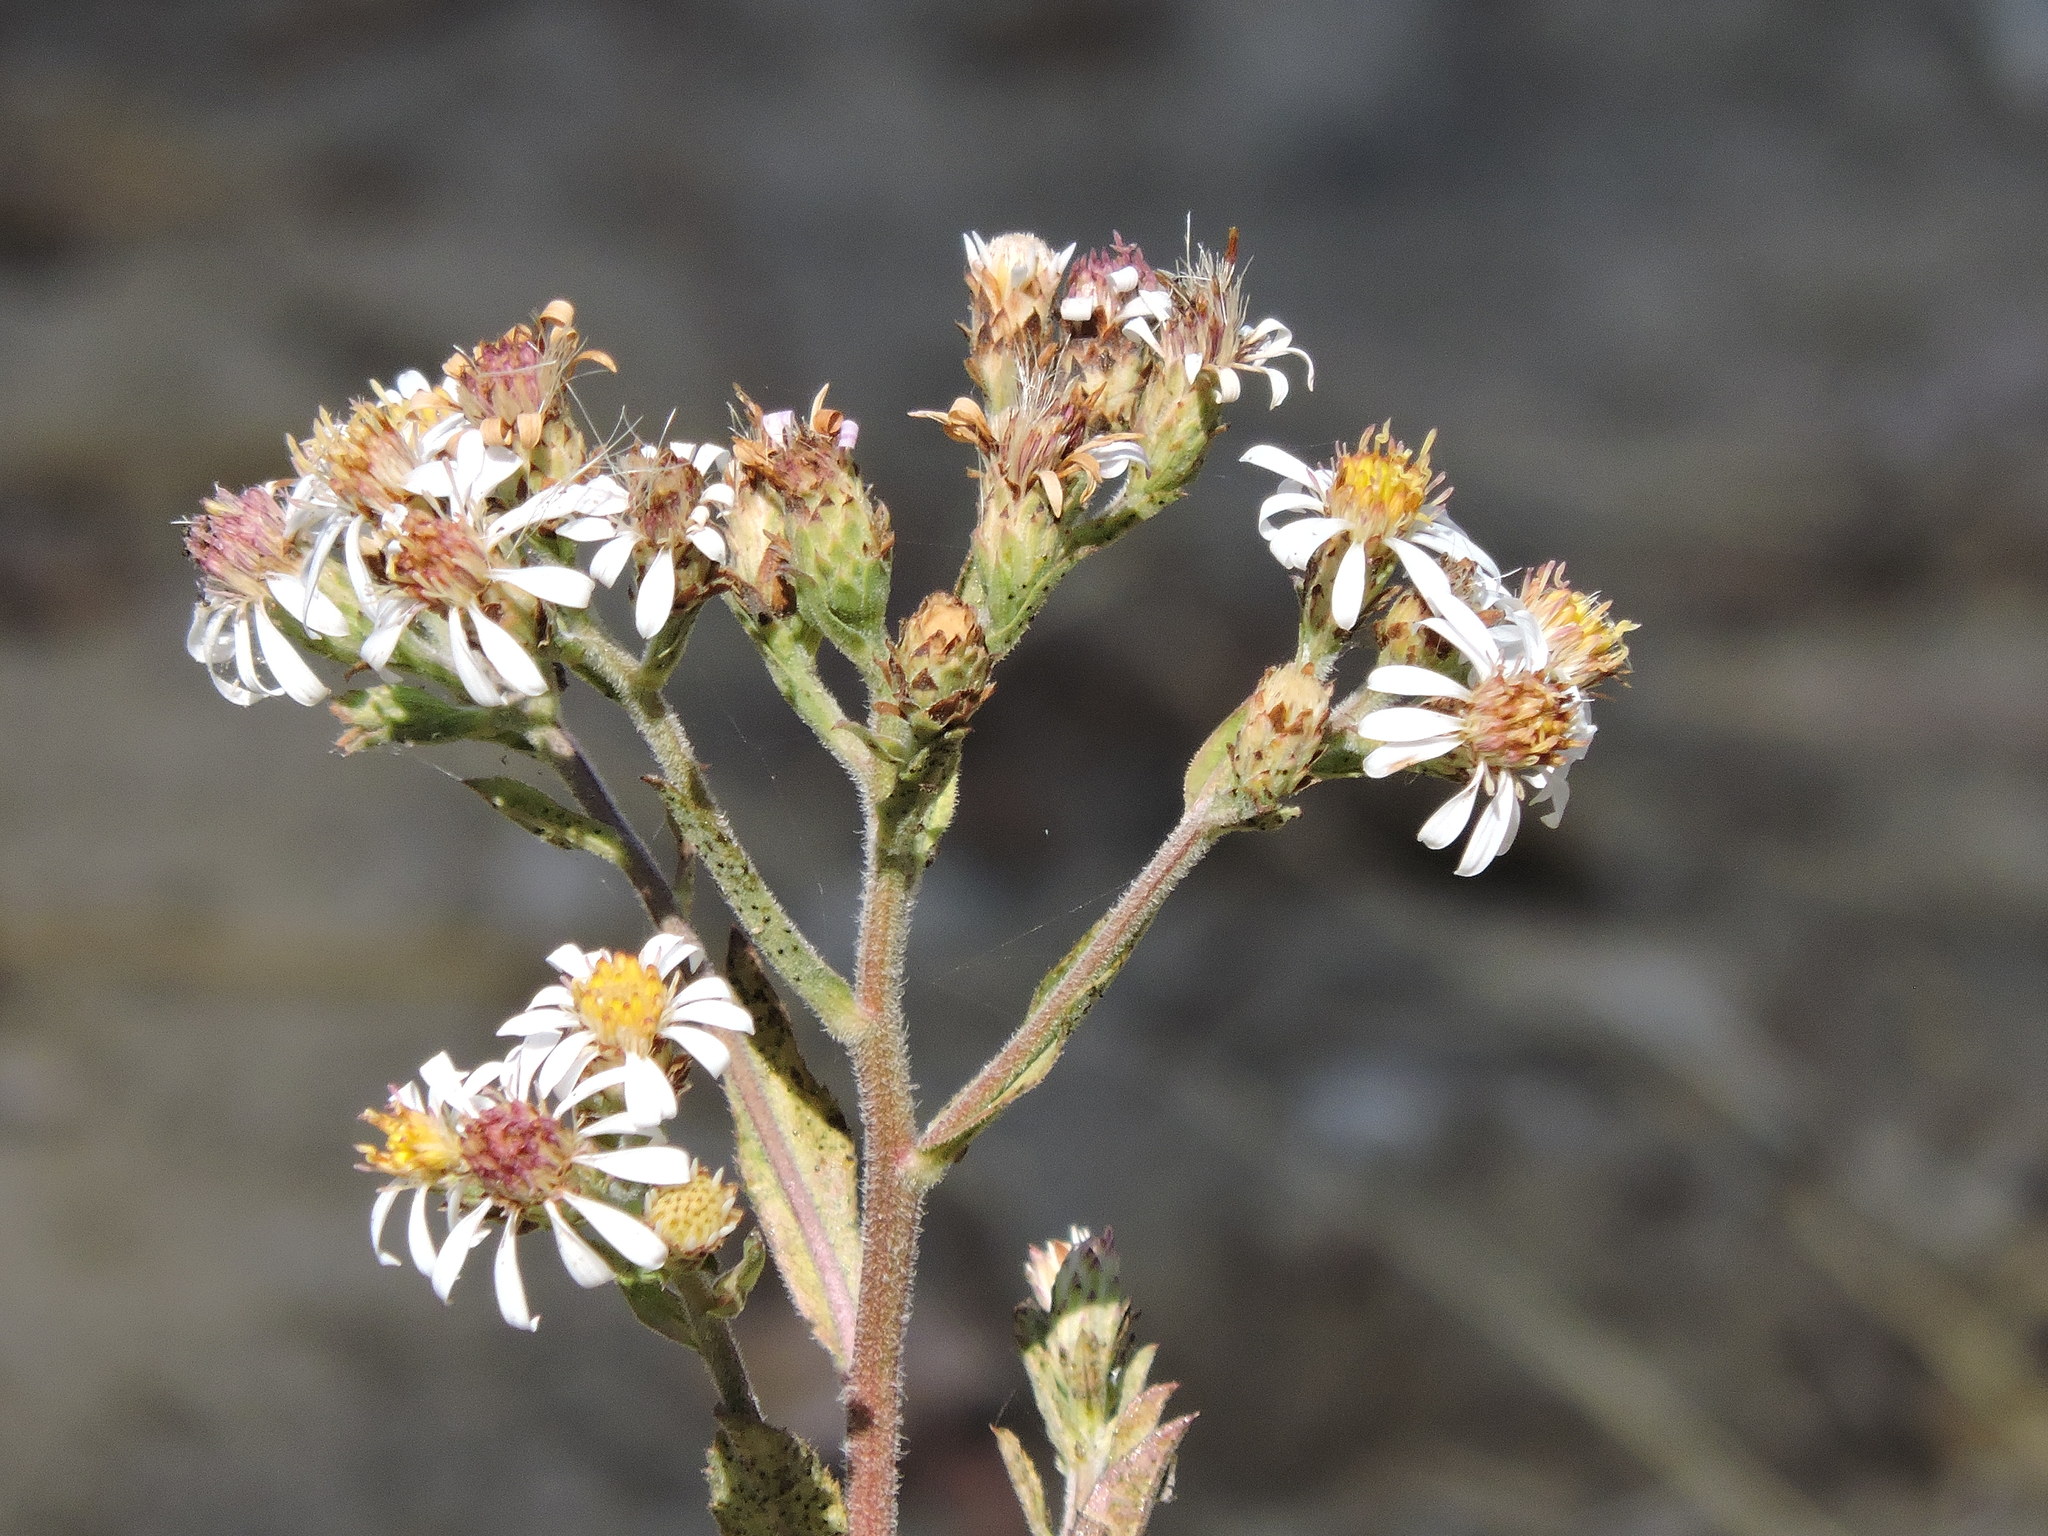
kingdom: Plantae
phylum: Tracheophyta
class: Magnoliopsida
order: Asterales
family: Asteraceae
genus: Eurybia
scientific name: Eurybia radulina
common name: Rough-leaved aster
